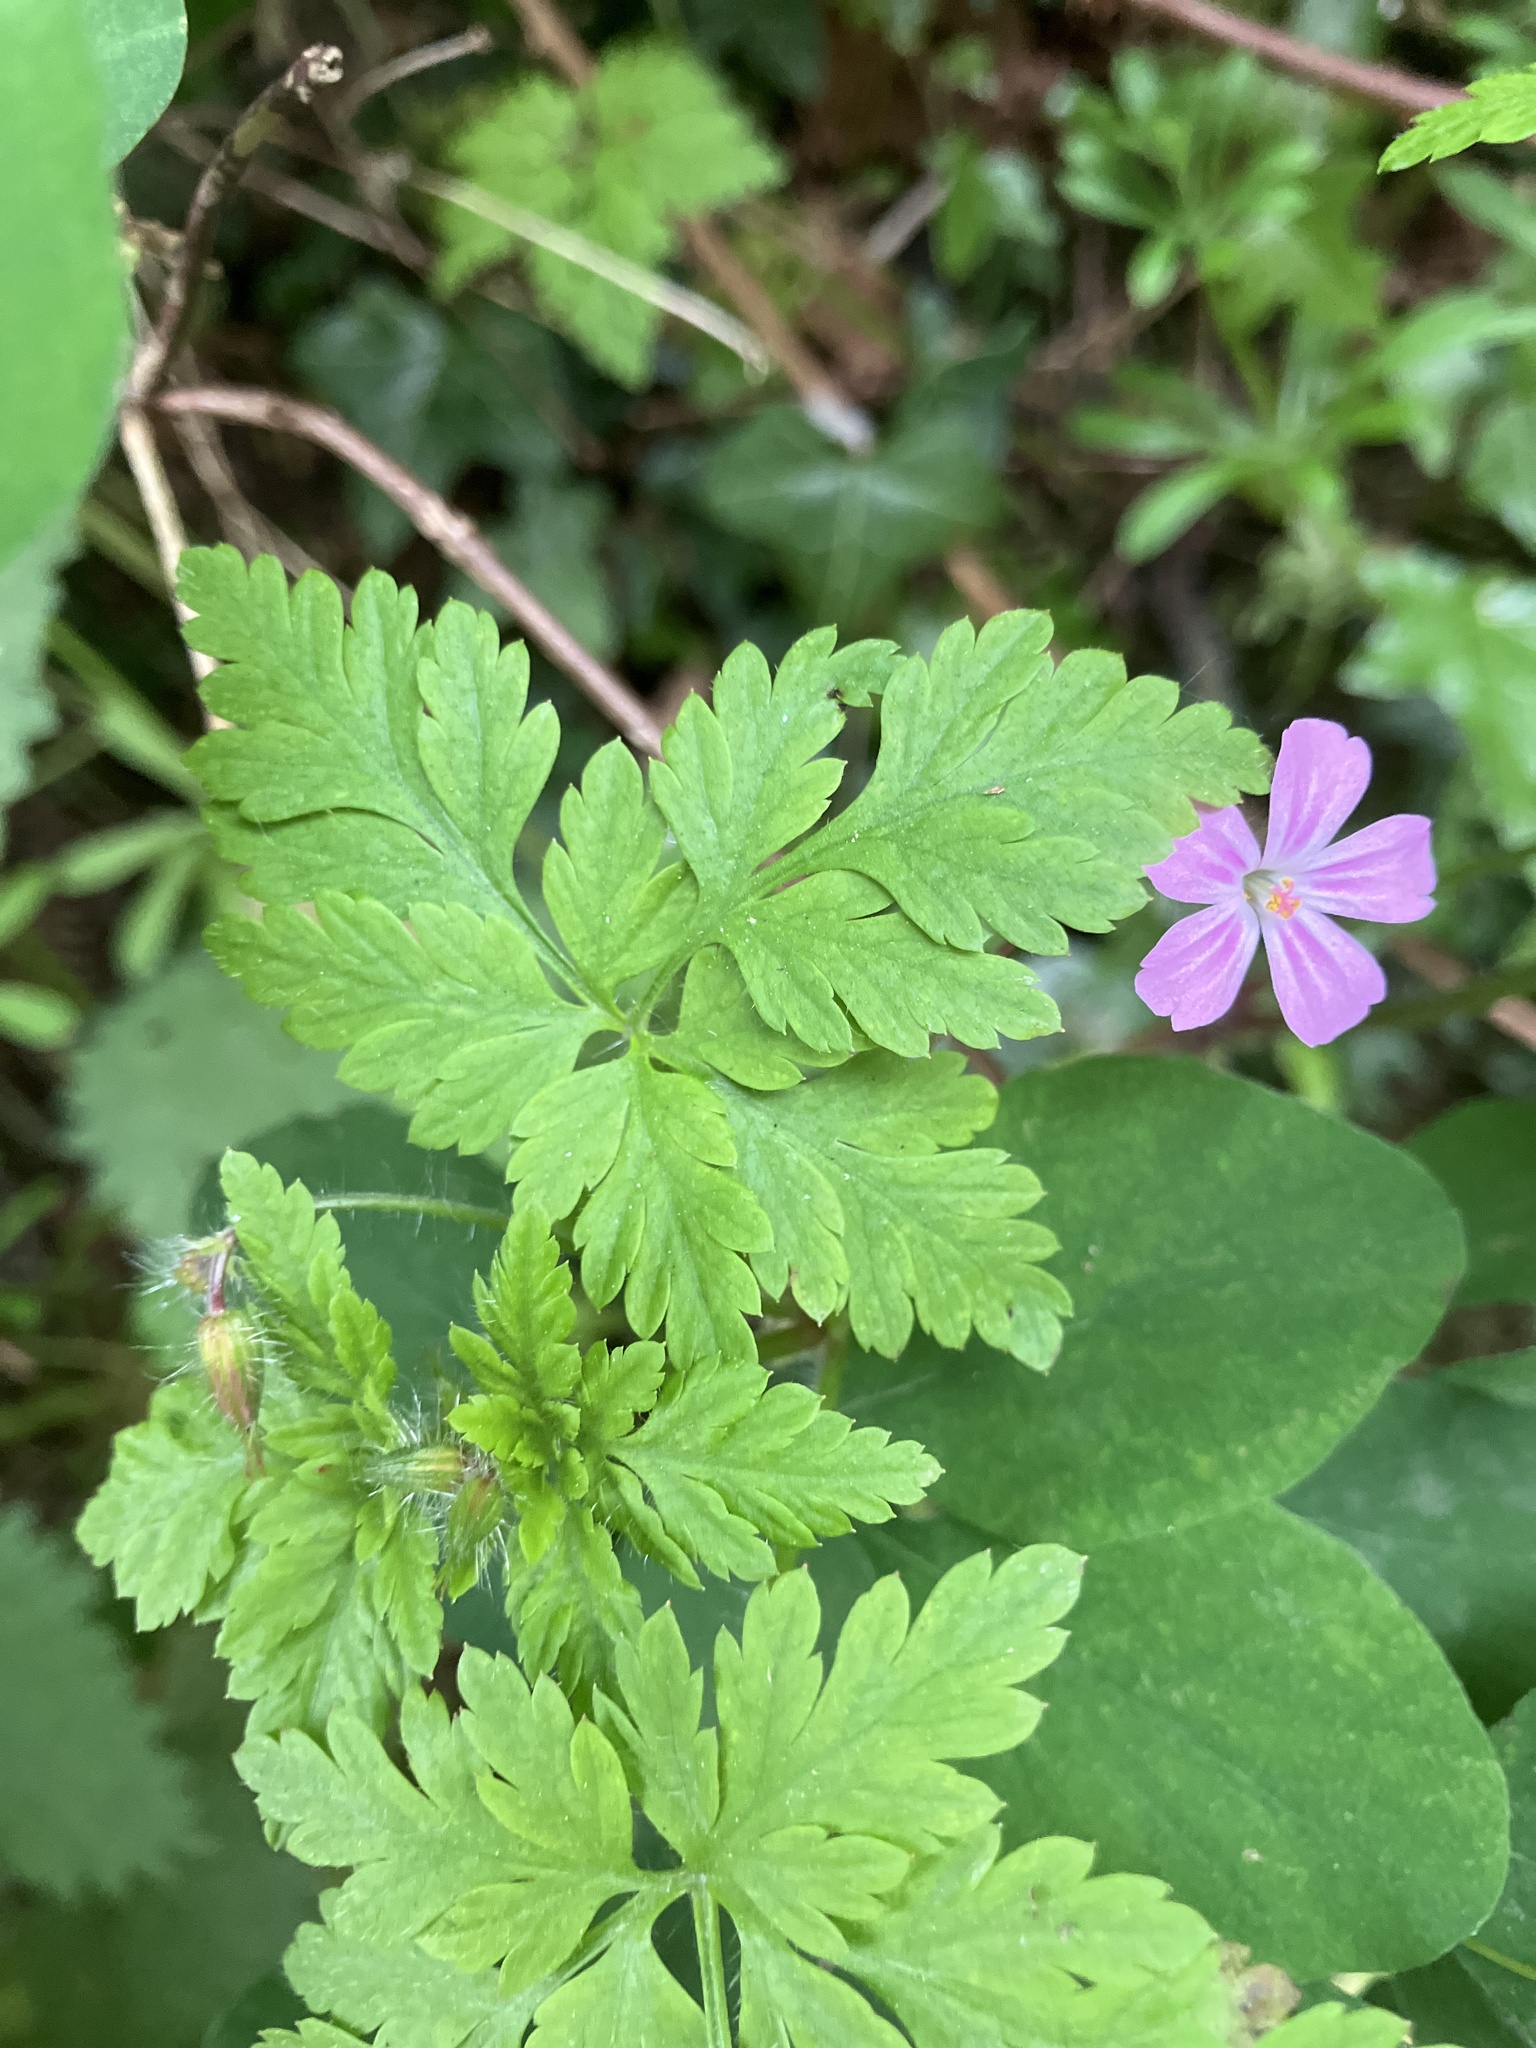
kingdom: Plantae
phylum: Tracheophyta
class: Magnoliopsida
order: Geraniales
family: Geraniaceae
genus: Geranium
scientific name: Geranium robertianum
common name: Herb-robert
